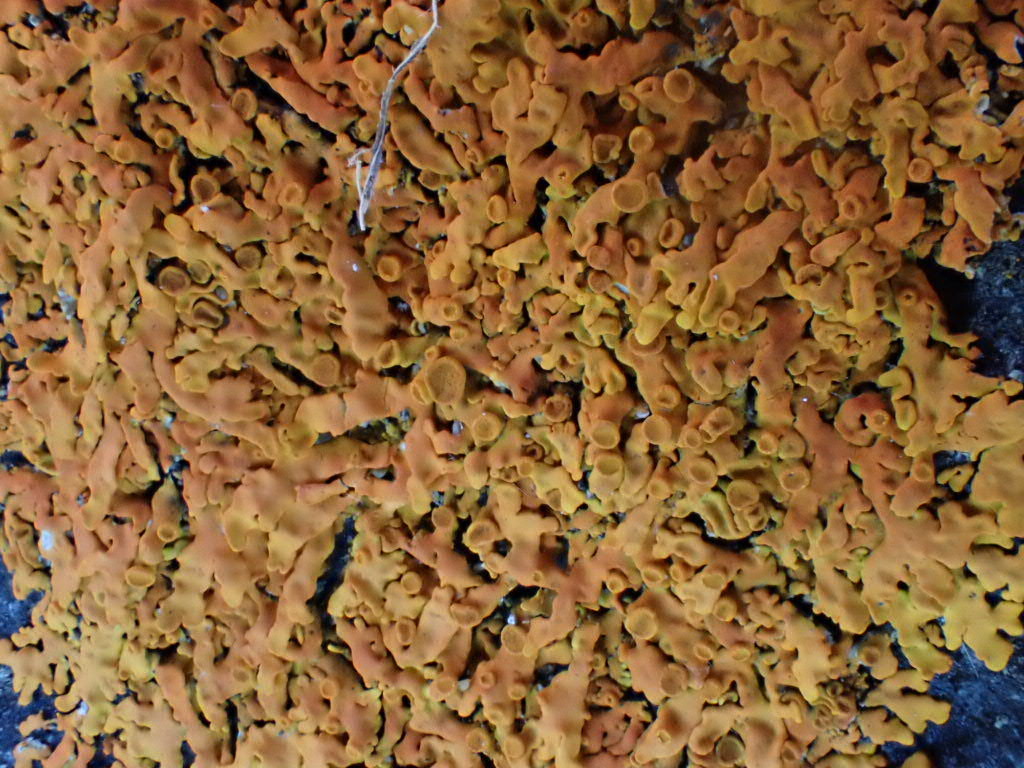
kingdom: Fungi
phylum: Ascomycota
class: Lecanoromycetes
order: Teloschistales
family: Teloschistaceae
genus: Dufourea
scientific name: Dufourea ligulata
